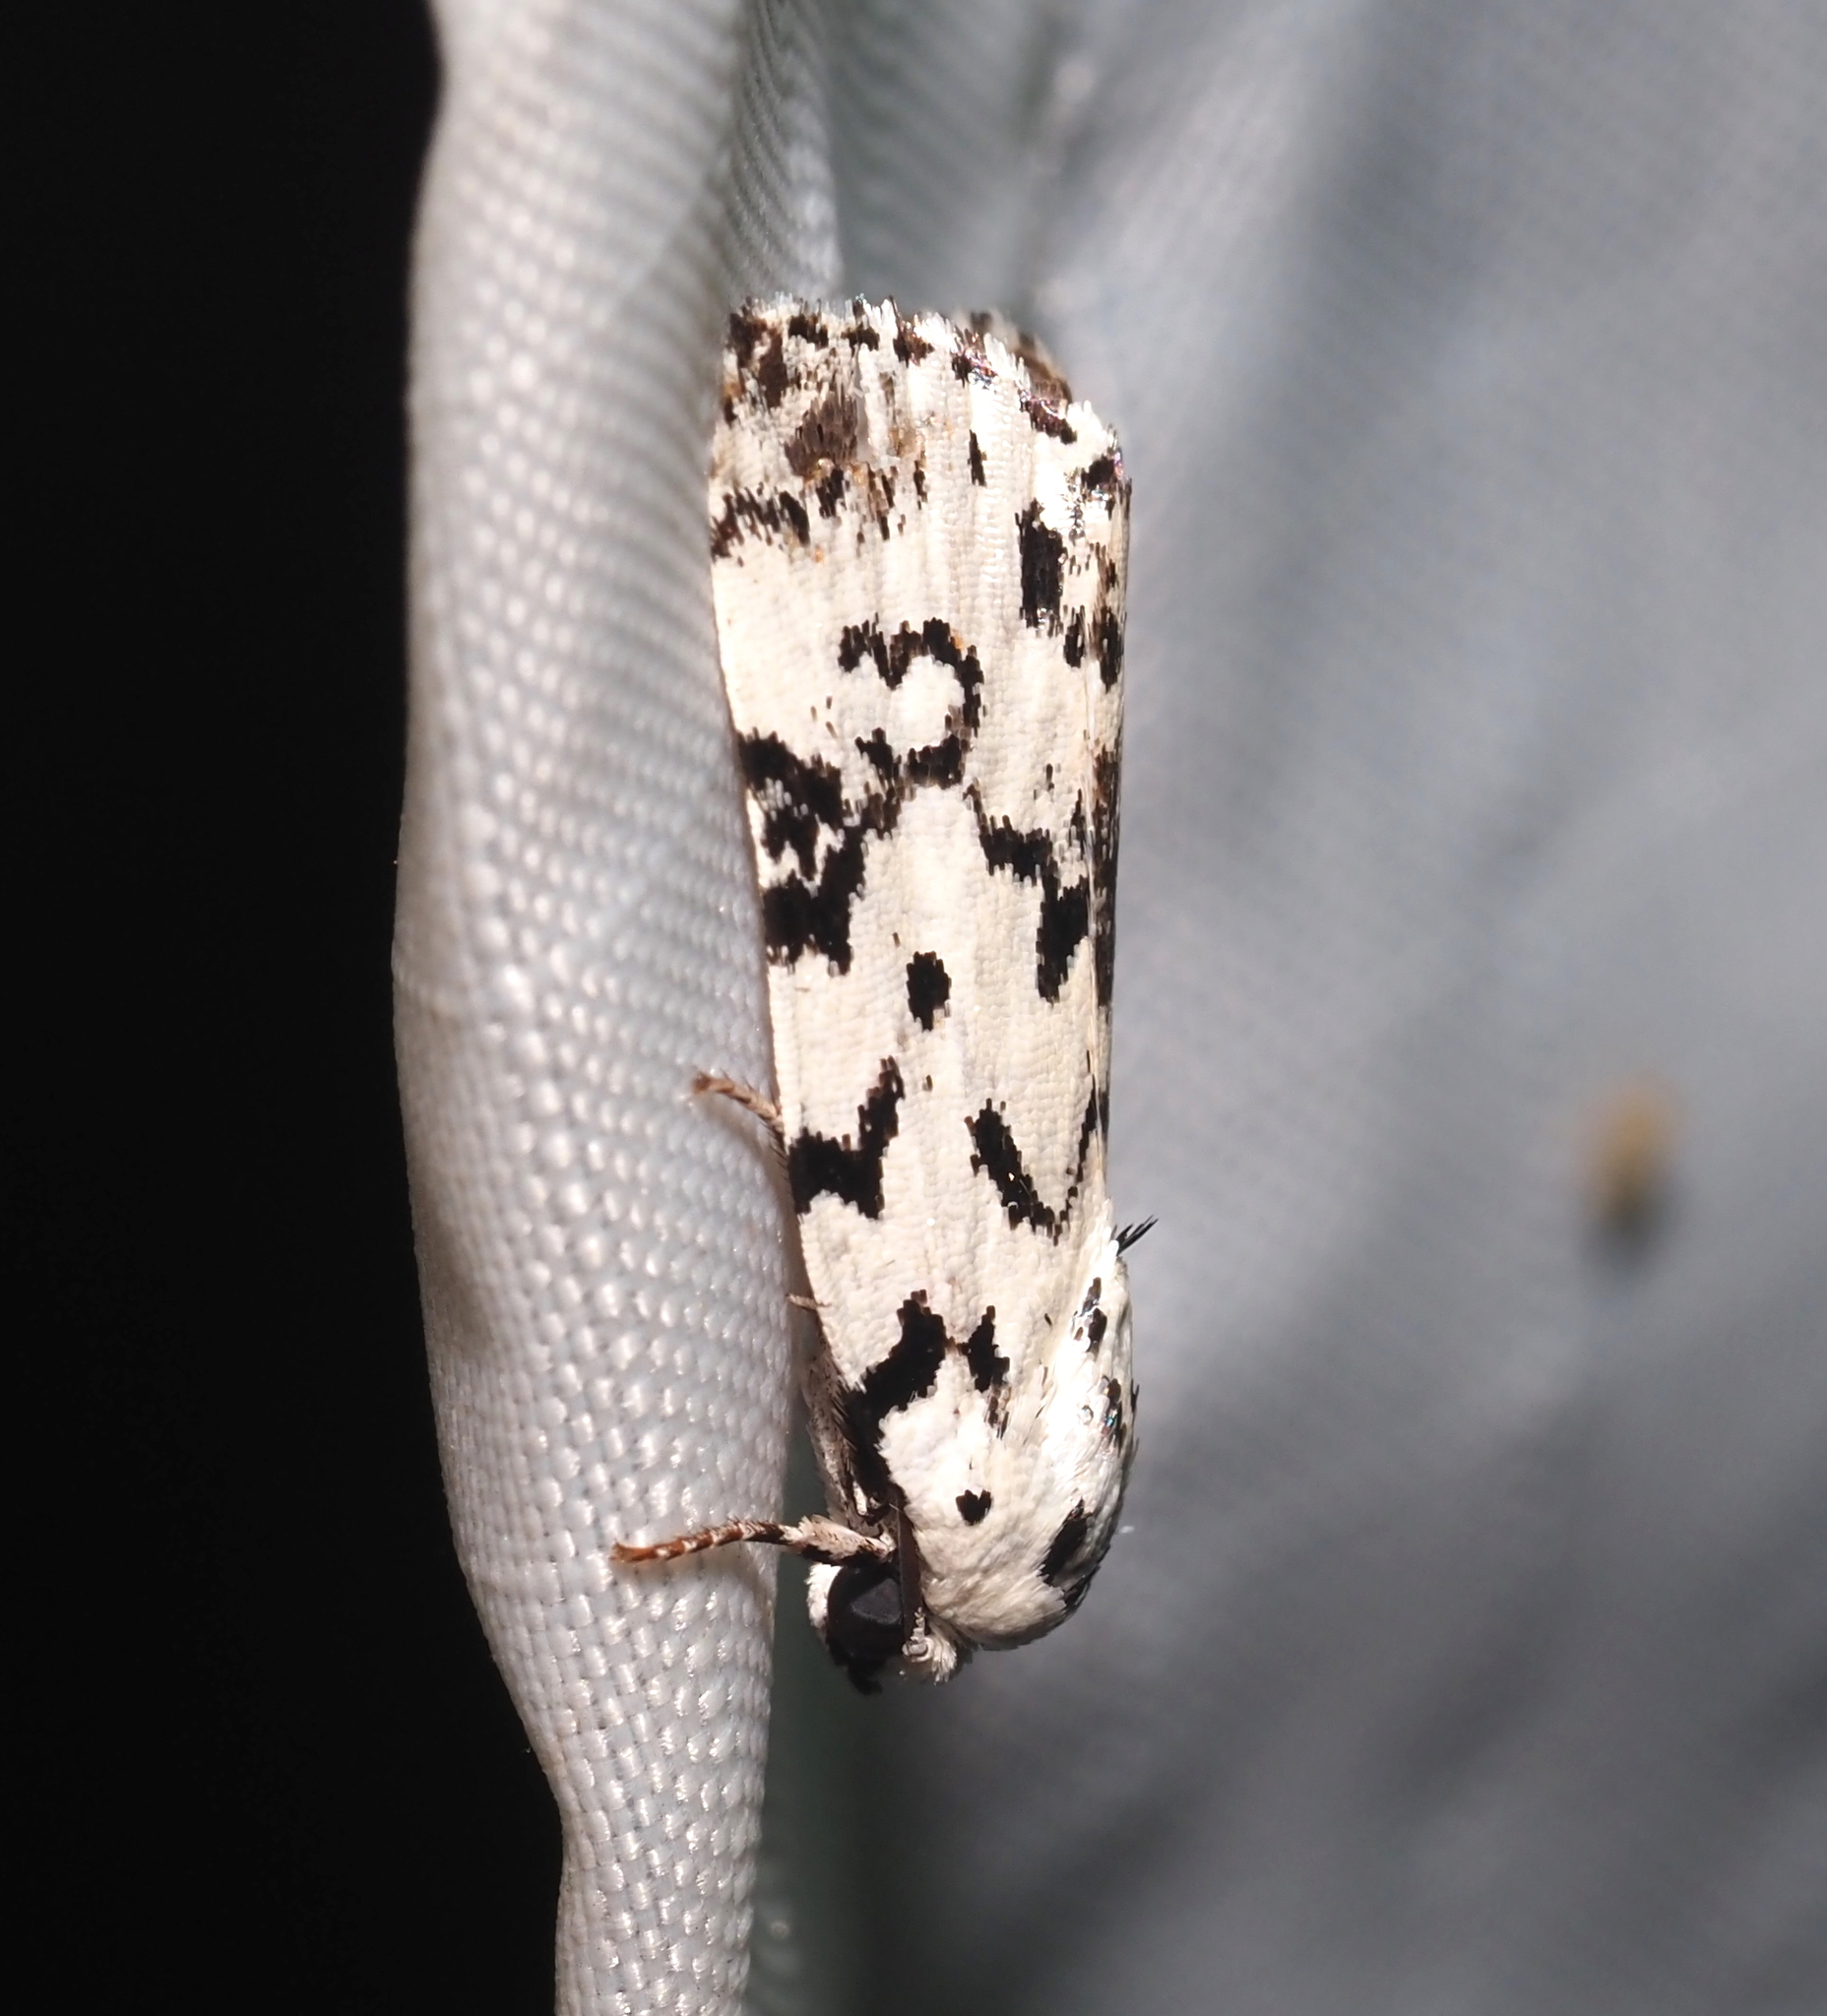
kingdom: Animalia
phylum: Arthropoda
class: Insecta
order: Lepidoptera
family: Noctuidae
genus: Polygrammate
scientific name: Polygrammate hebraeicum
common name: Hebrew moth
